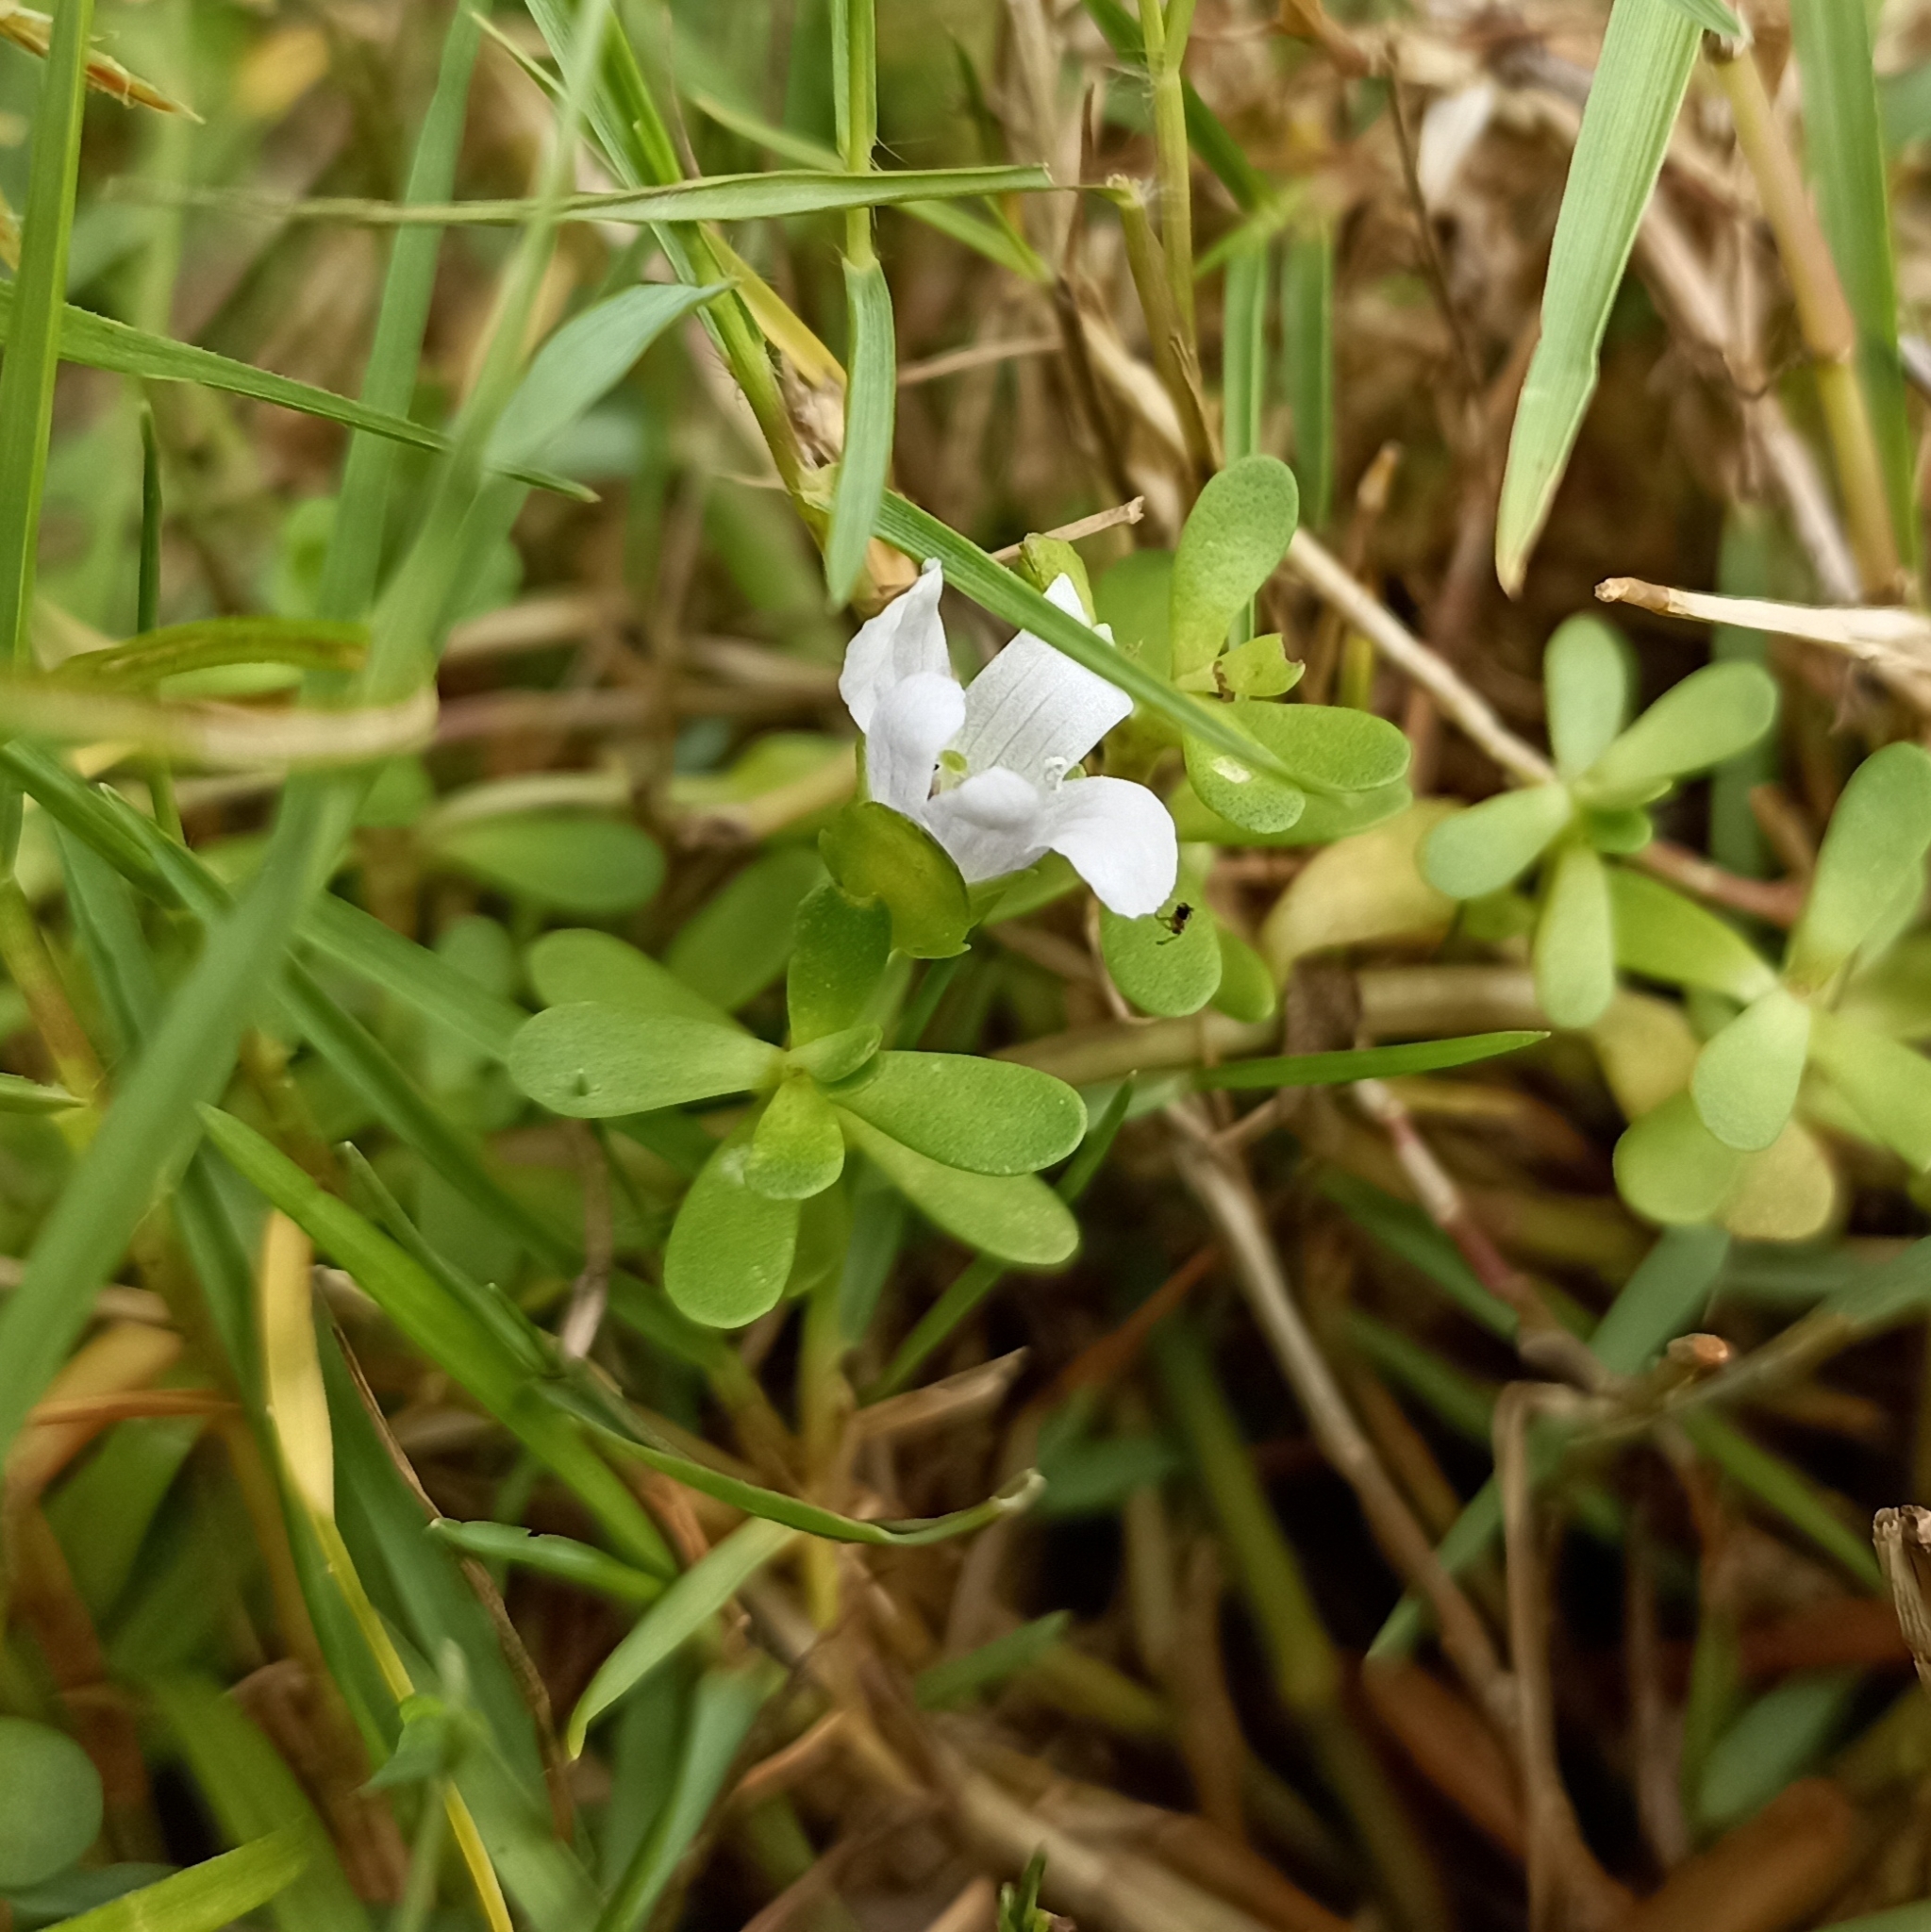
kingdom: Plantae
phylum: Tracheophyta
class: Magnoliopsida
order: Lamiales
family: Plantaginaceae
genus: Bacopa
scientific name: Bacopa monnieri
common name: Indian-pennywort
